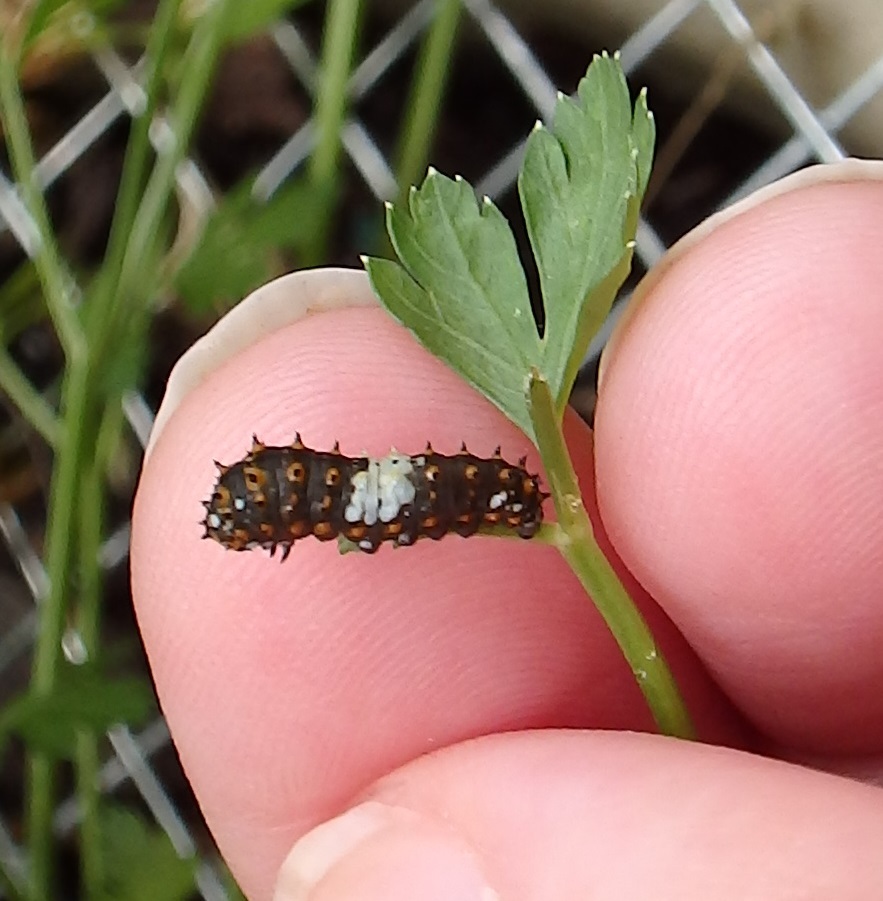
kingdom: Animalia
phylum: Arthropoda
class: Insecta
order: Lepidoptera
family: Papilionidae
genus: Papilio
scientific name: Papilio polyxenes
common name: Black swallowtail
